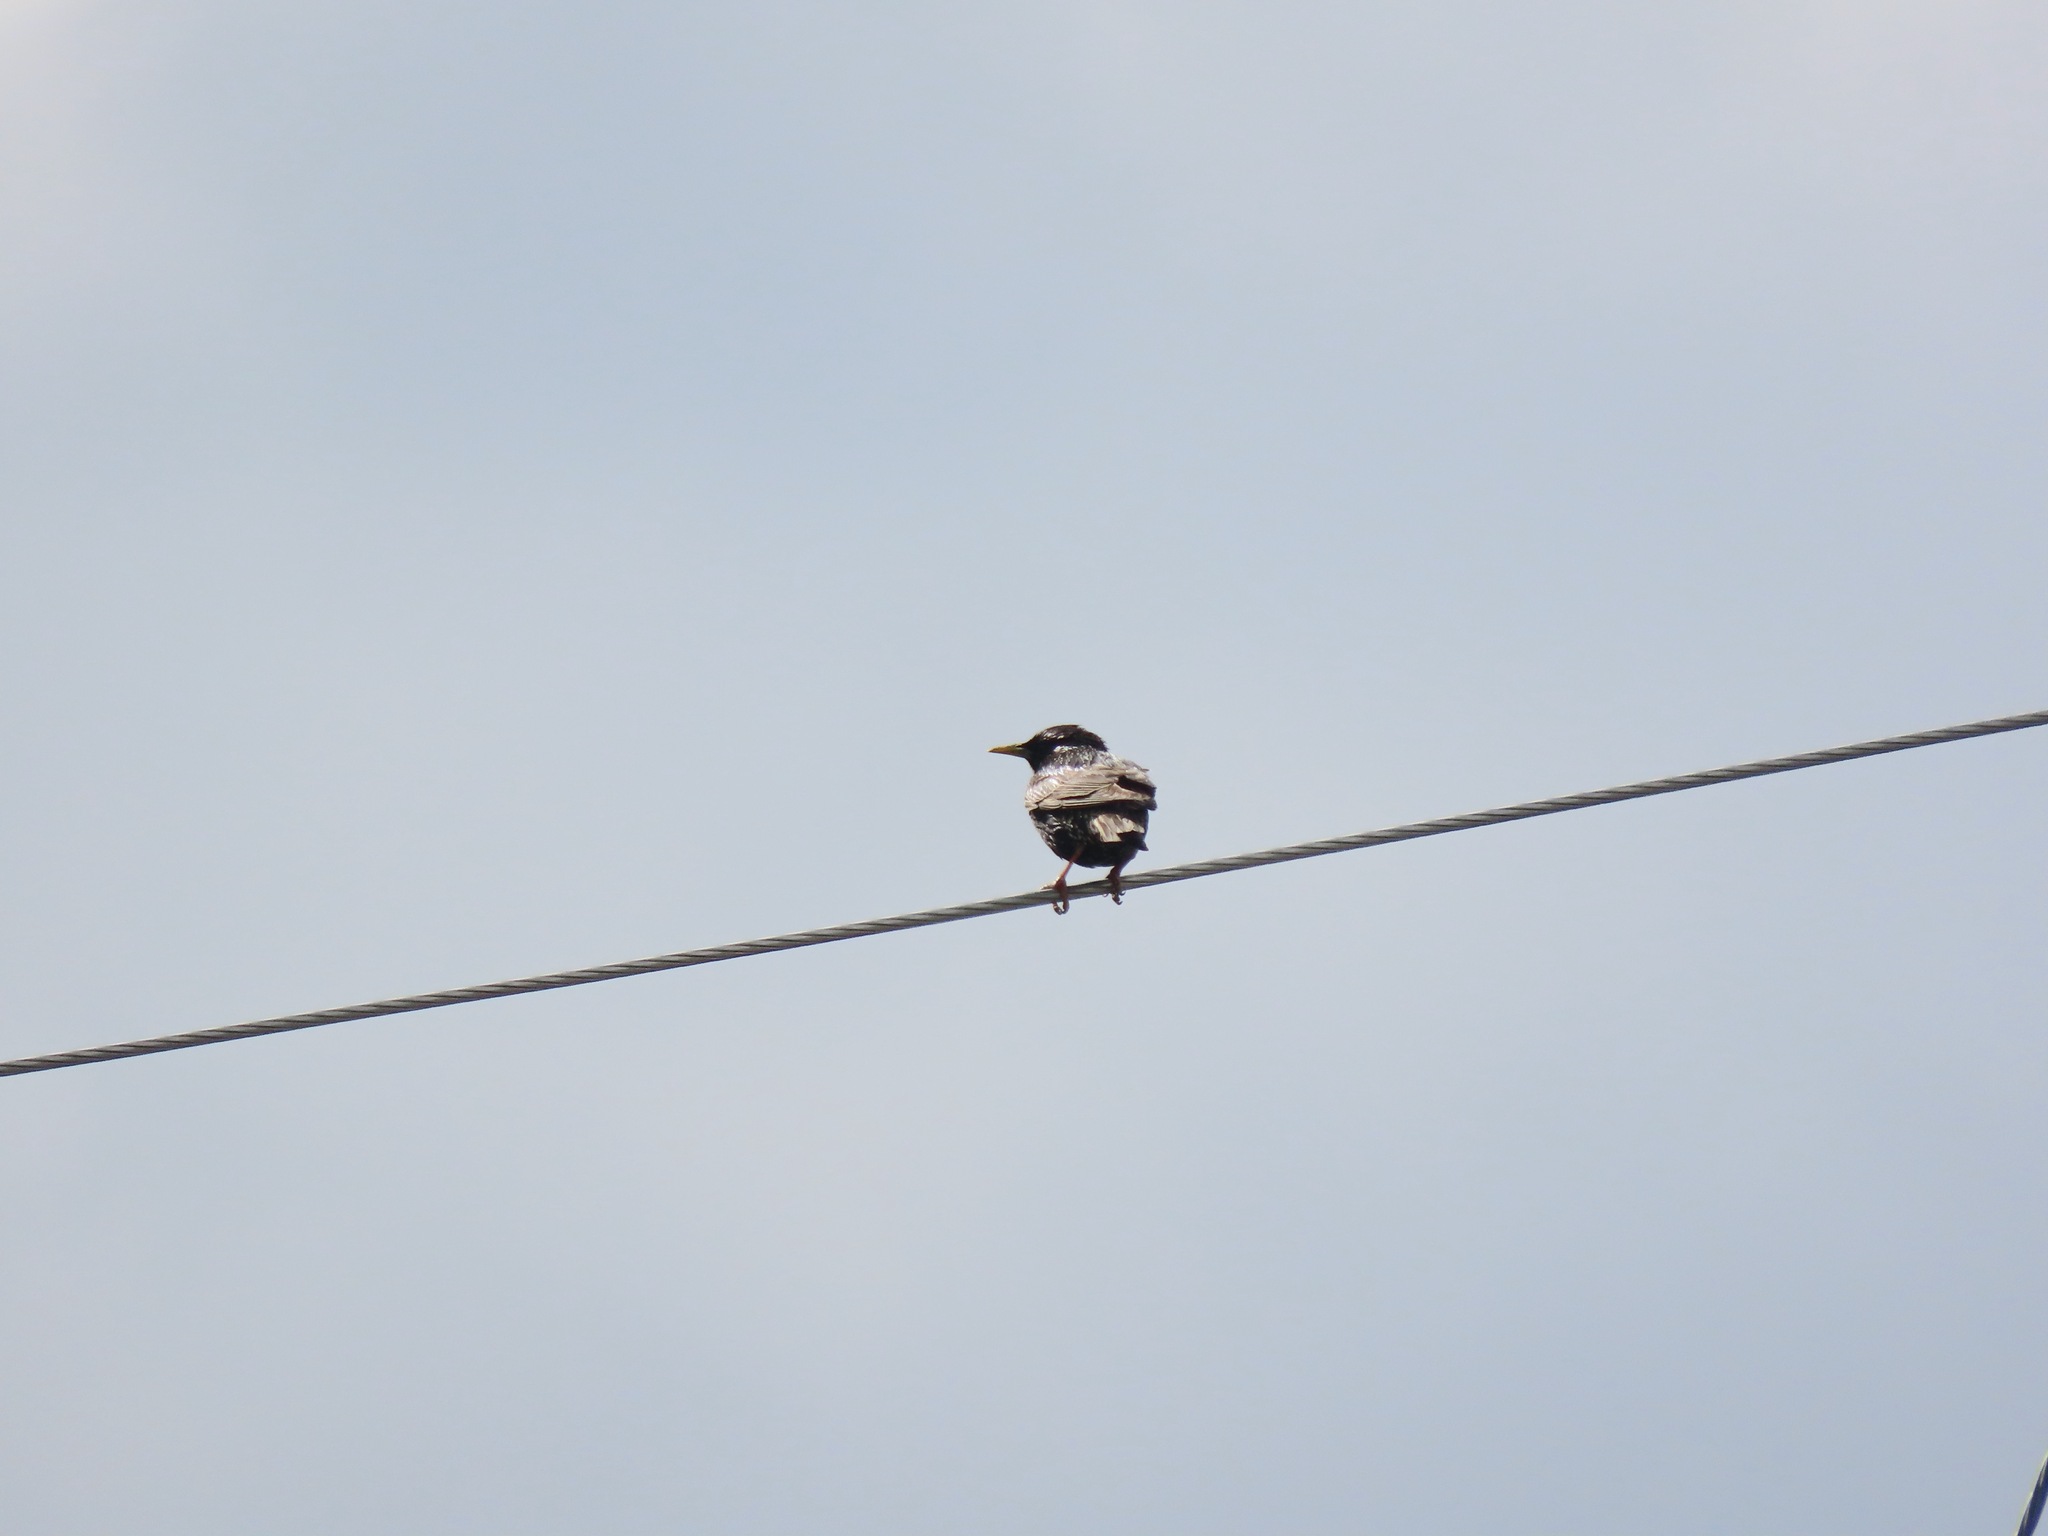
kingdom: Animalia
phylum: Chordata
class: Aves
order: Passeriformes
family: Sturnidae
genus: Sturnus
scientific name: Sturnus vulgaris
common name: Common starling
